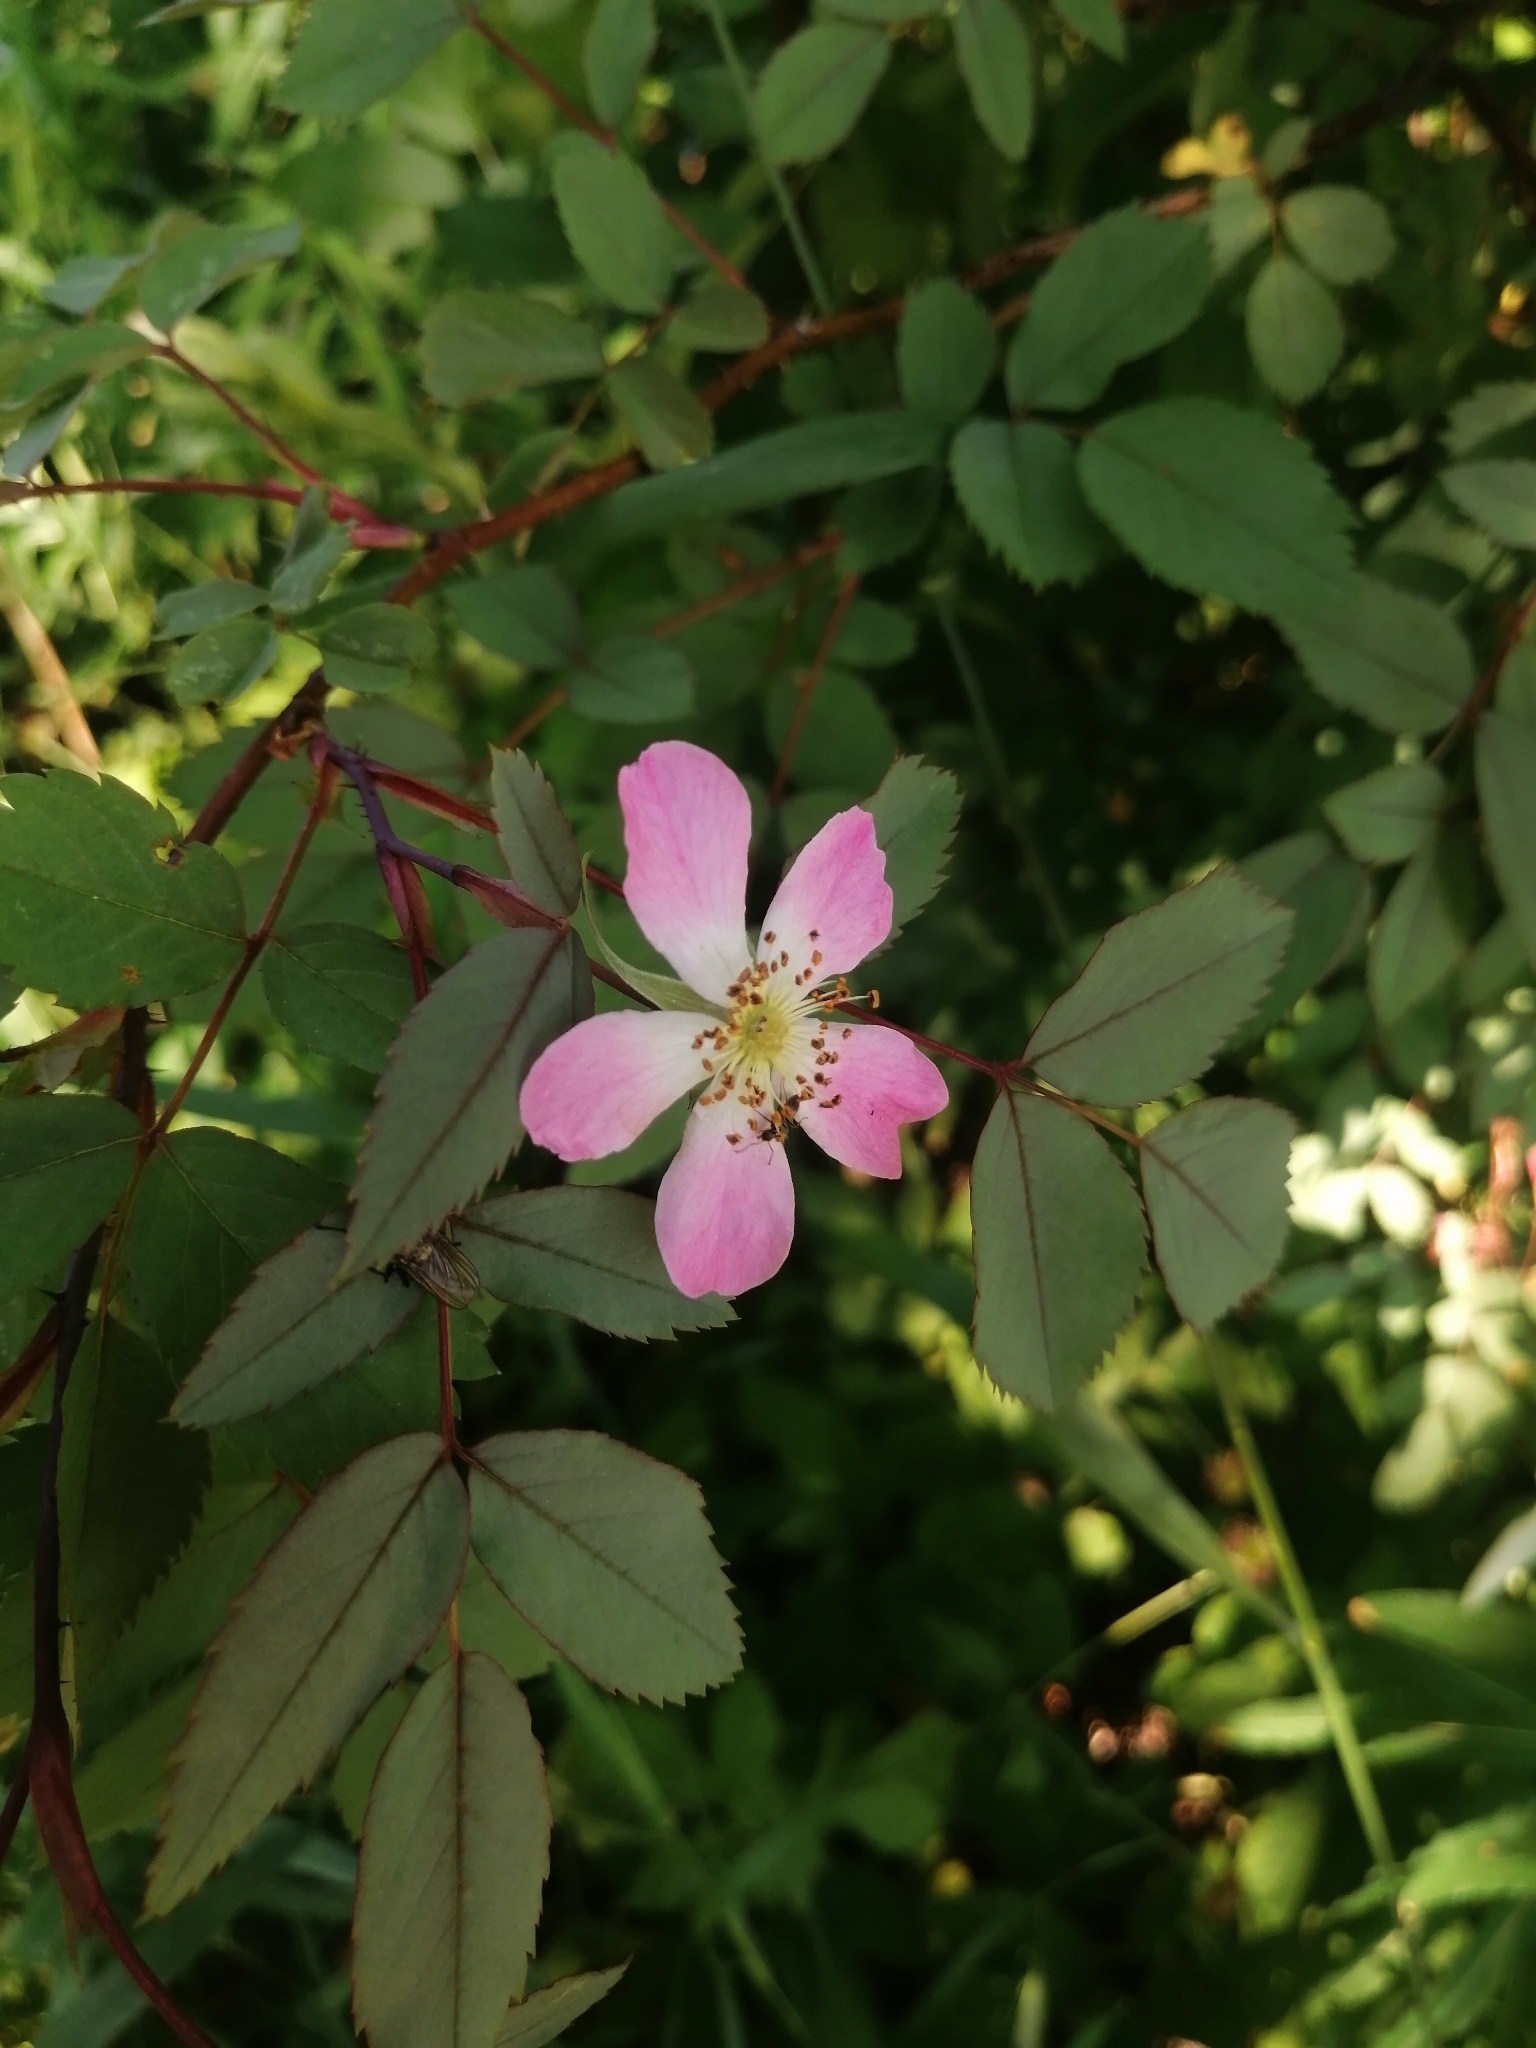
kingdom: Plantae
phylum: Tracheophyta
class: Magnoliopsida
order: Rosales
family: Rosaceae
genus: Rosa
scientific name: Rosa glauca
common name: Redleaf rose
